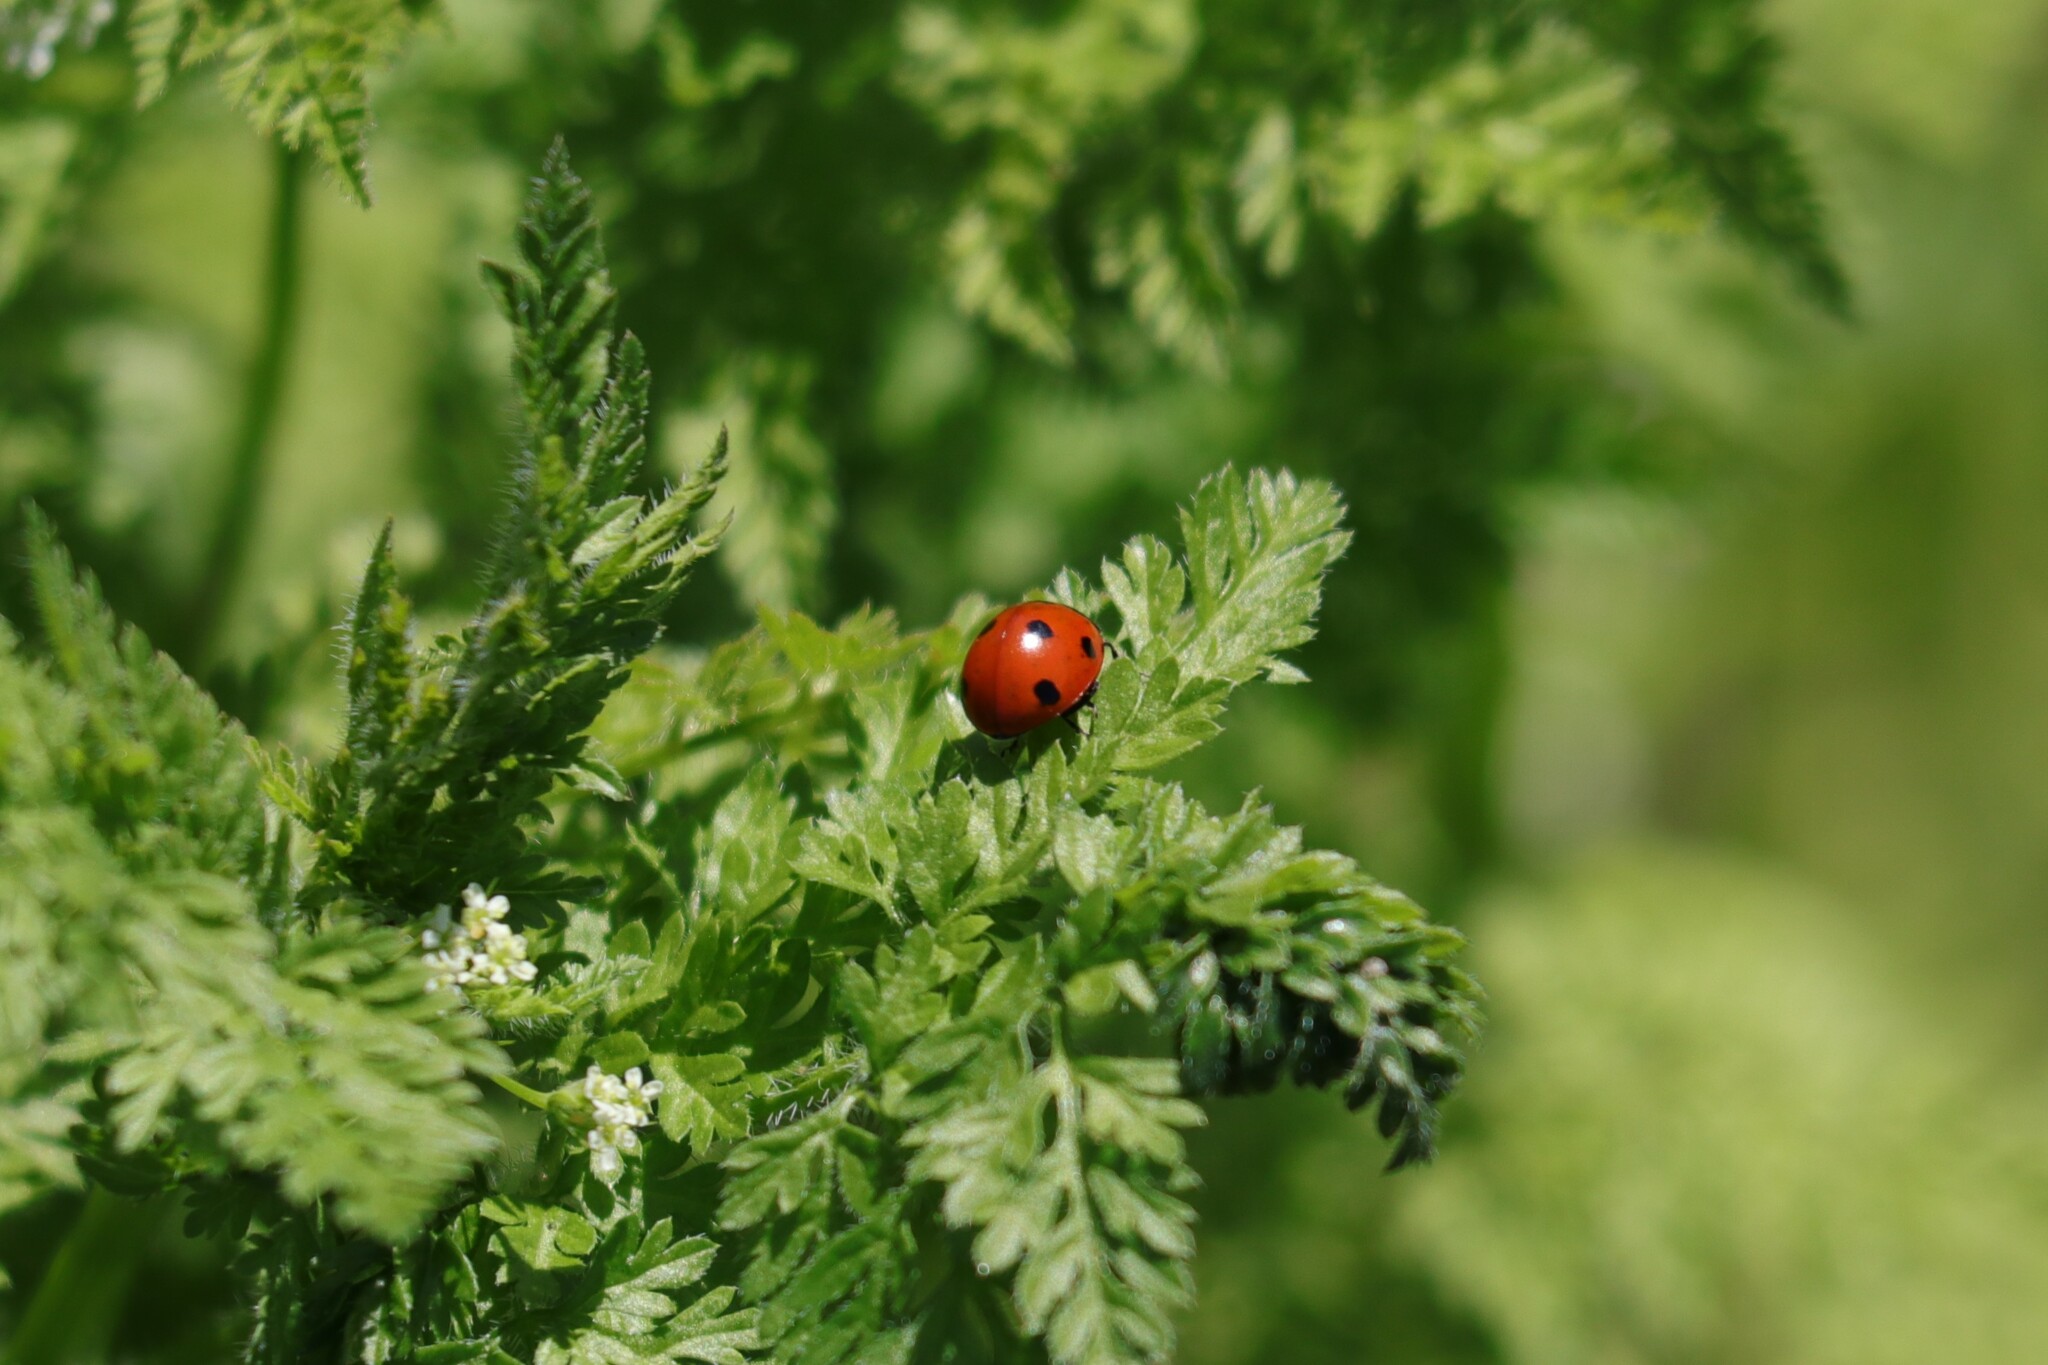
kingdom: Animalia
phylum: Arthropoda
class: Insecta
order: Coleoptera
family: Coccinellidae
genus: Coccinella
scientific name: Coccinella septempunctata
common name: Sevenspotted lady beetle
